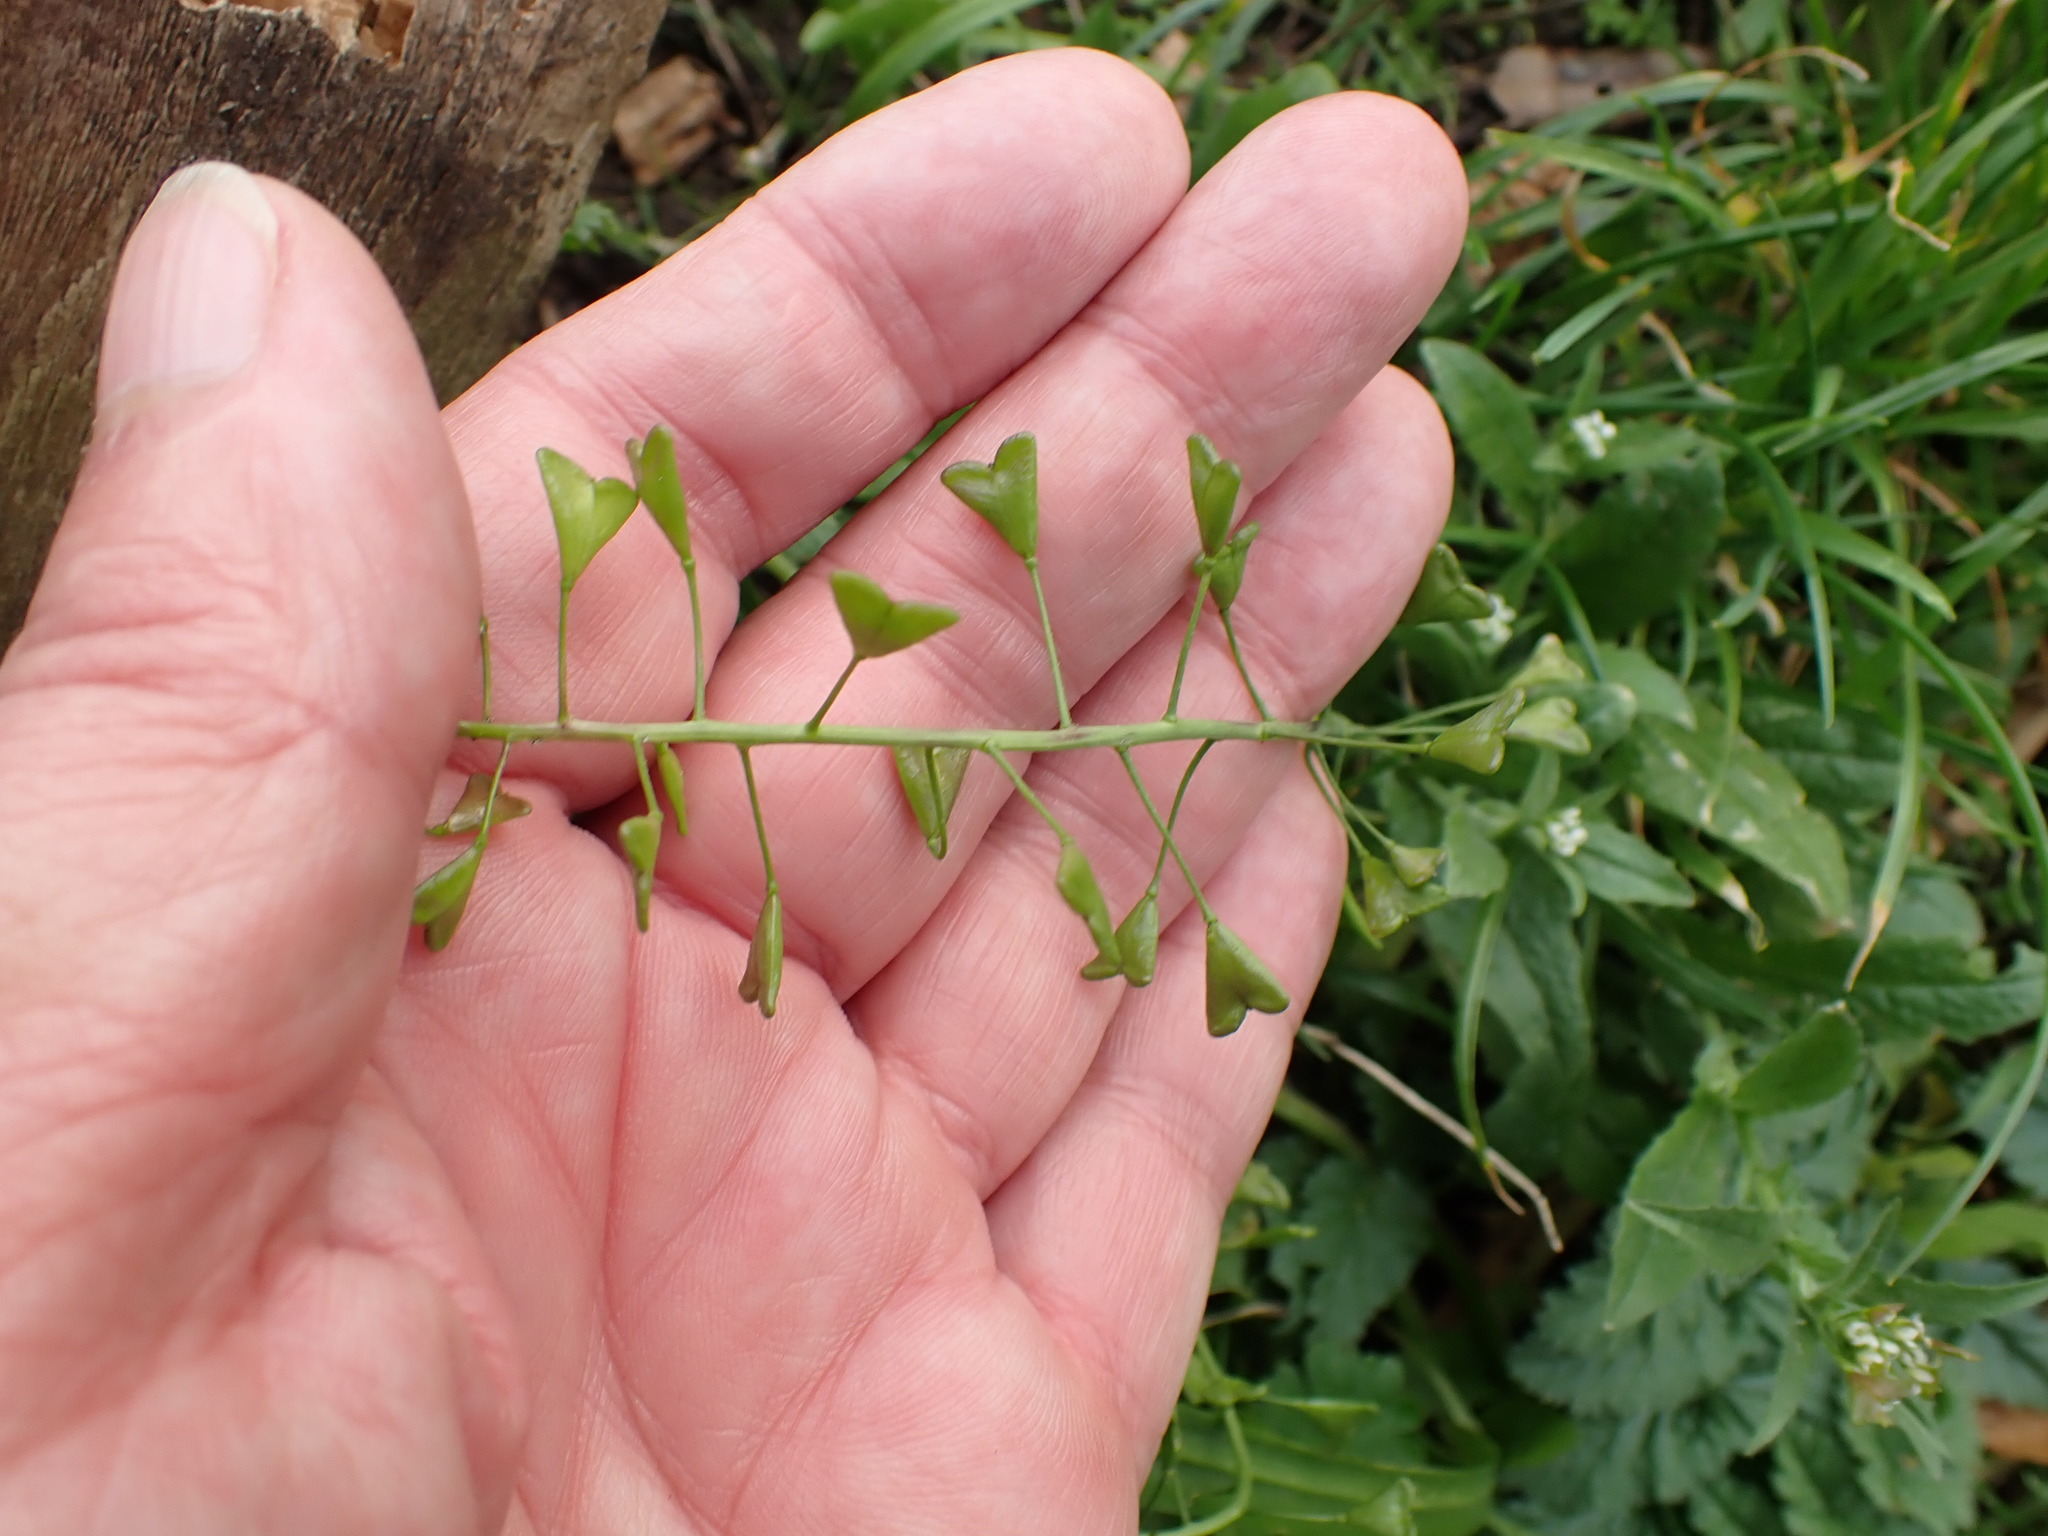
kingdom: Plantae
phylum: Tracheophyta
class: Magnoliopsida
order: Brassicales
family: Brassicaceae
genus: Capsella
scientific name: Capsella bursa-pastoris
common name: Shepherd's purse
